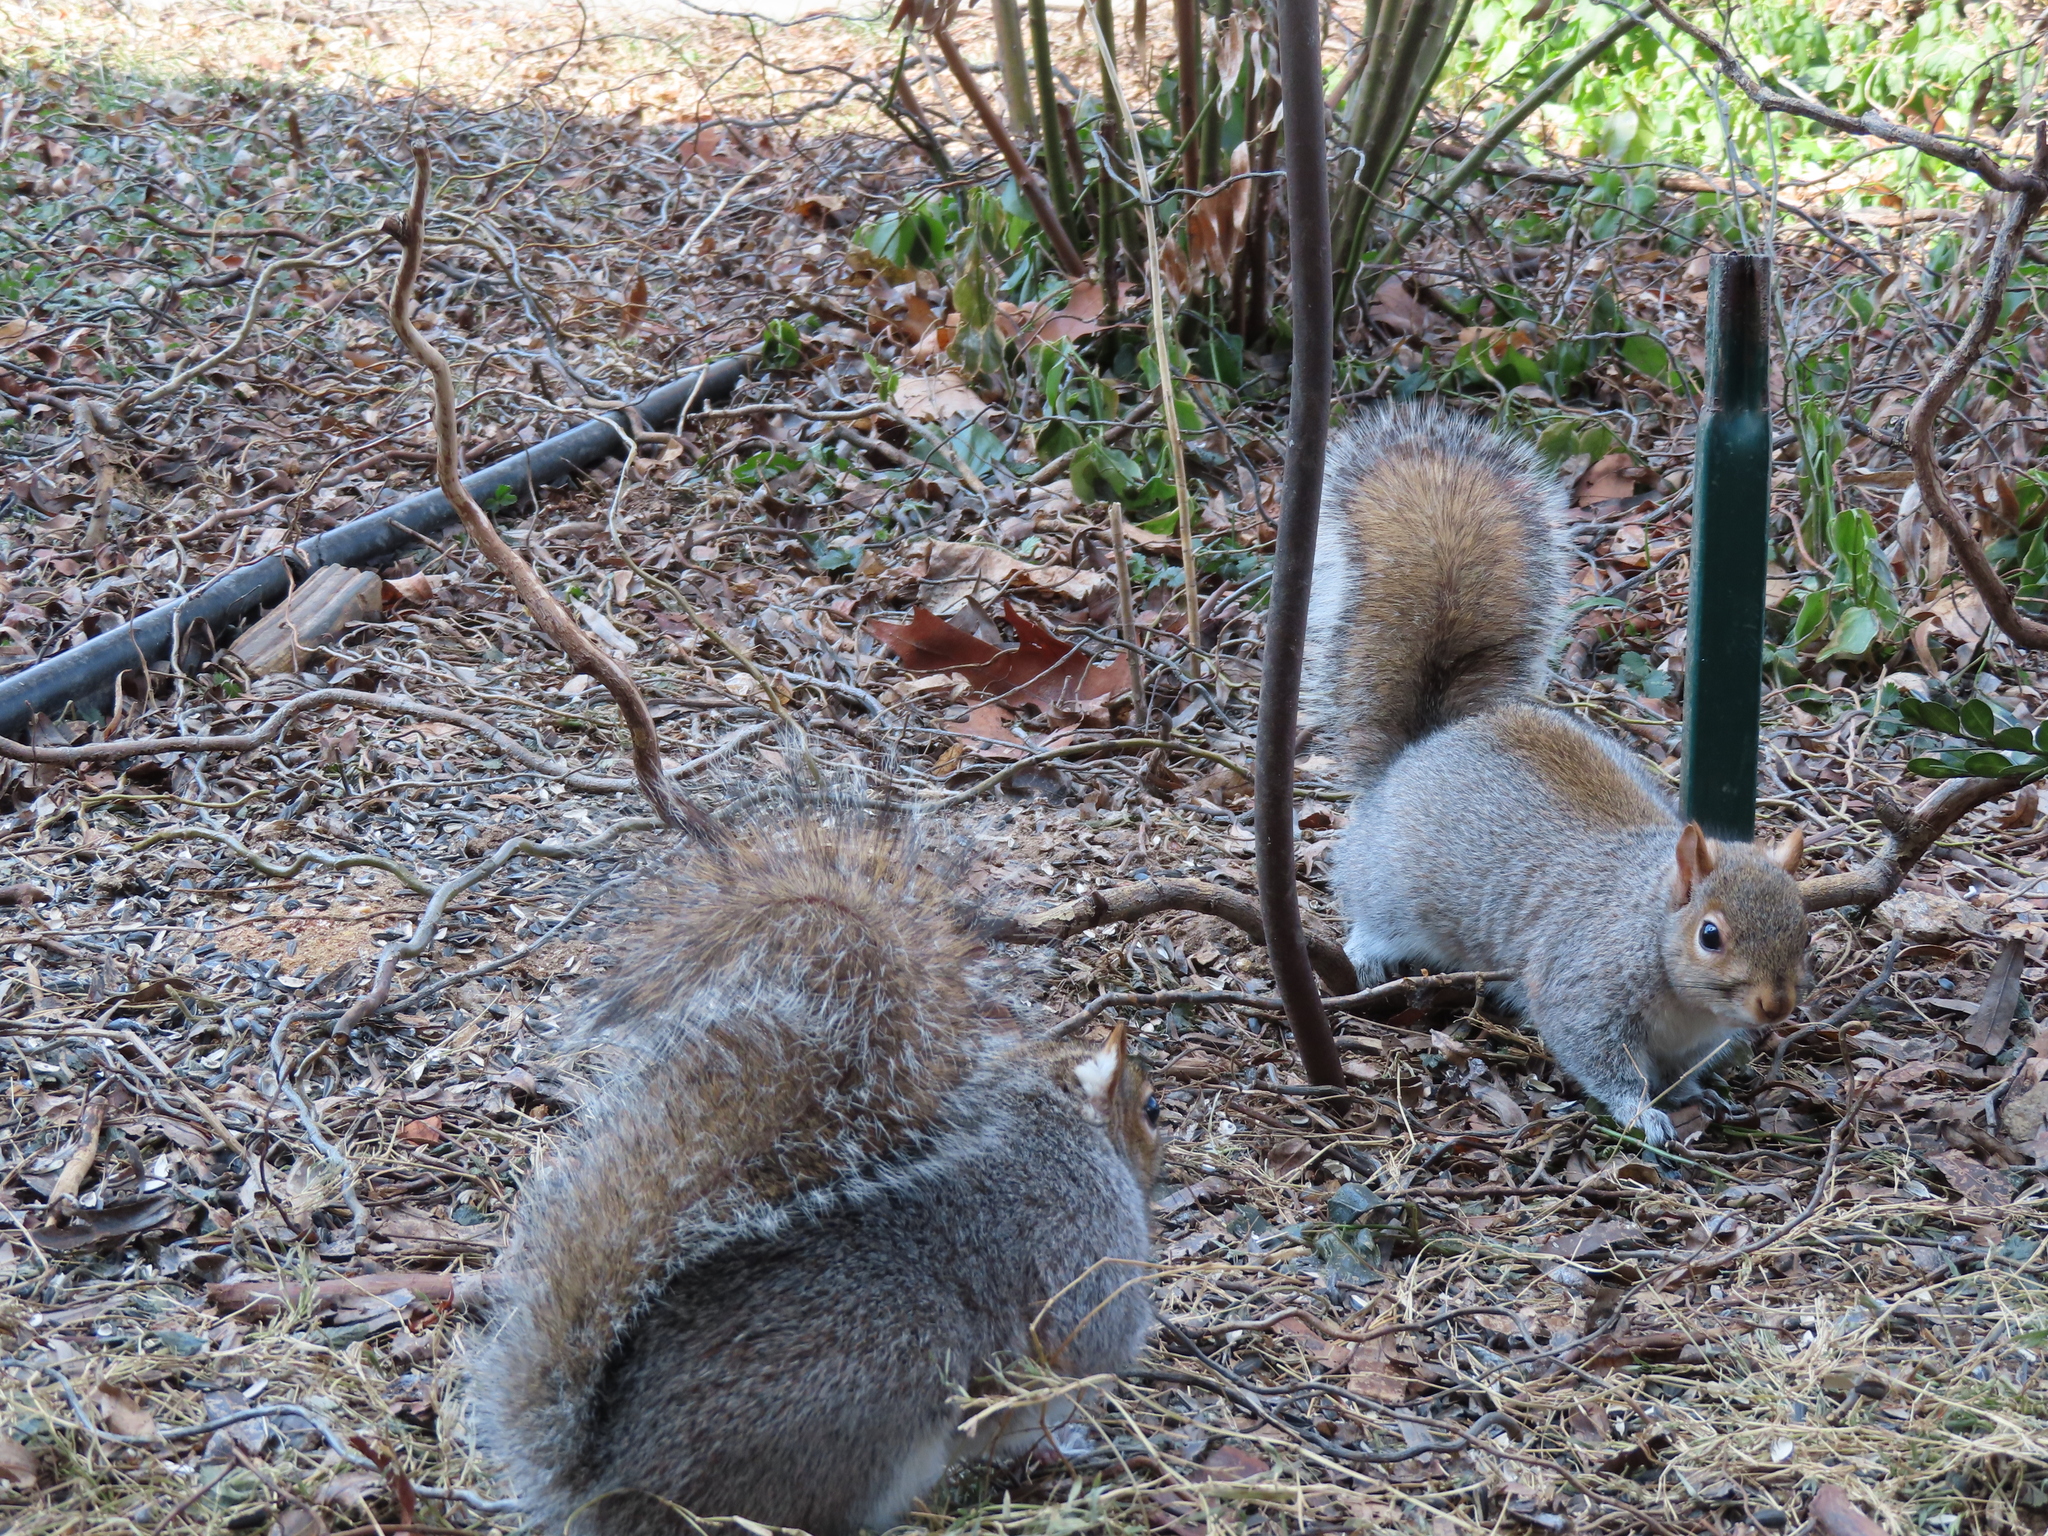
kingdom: Animalia
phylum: Chordata
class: Mammalia
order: Rodentia
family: Sciuridae
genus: Sciurus
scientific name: Sciurus carolinensis
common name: Eastern gray squirrel
